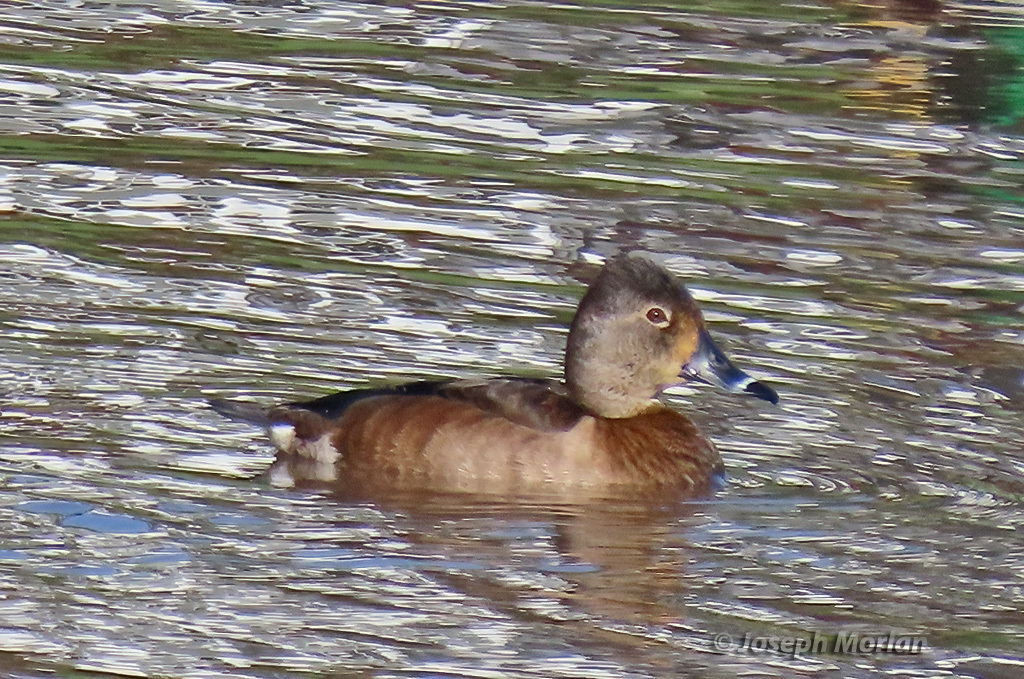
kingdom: Animalia
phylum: Chordata
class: Aves
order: Anseriformes
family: Anatidae
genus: Aythya
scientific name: Aythya collaris
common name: Ring-necked duck
